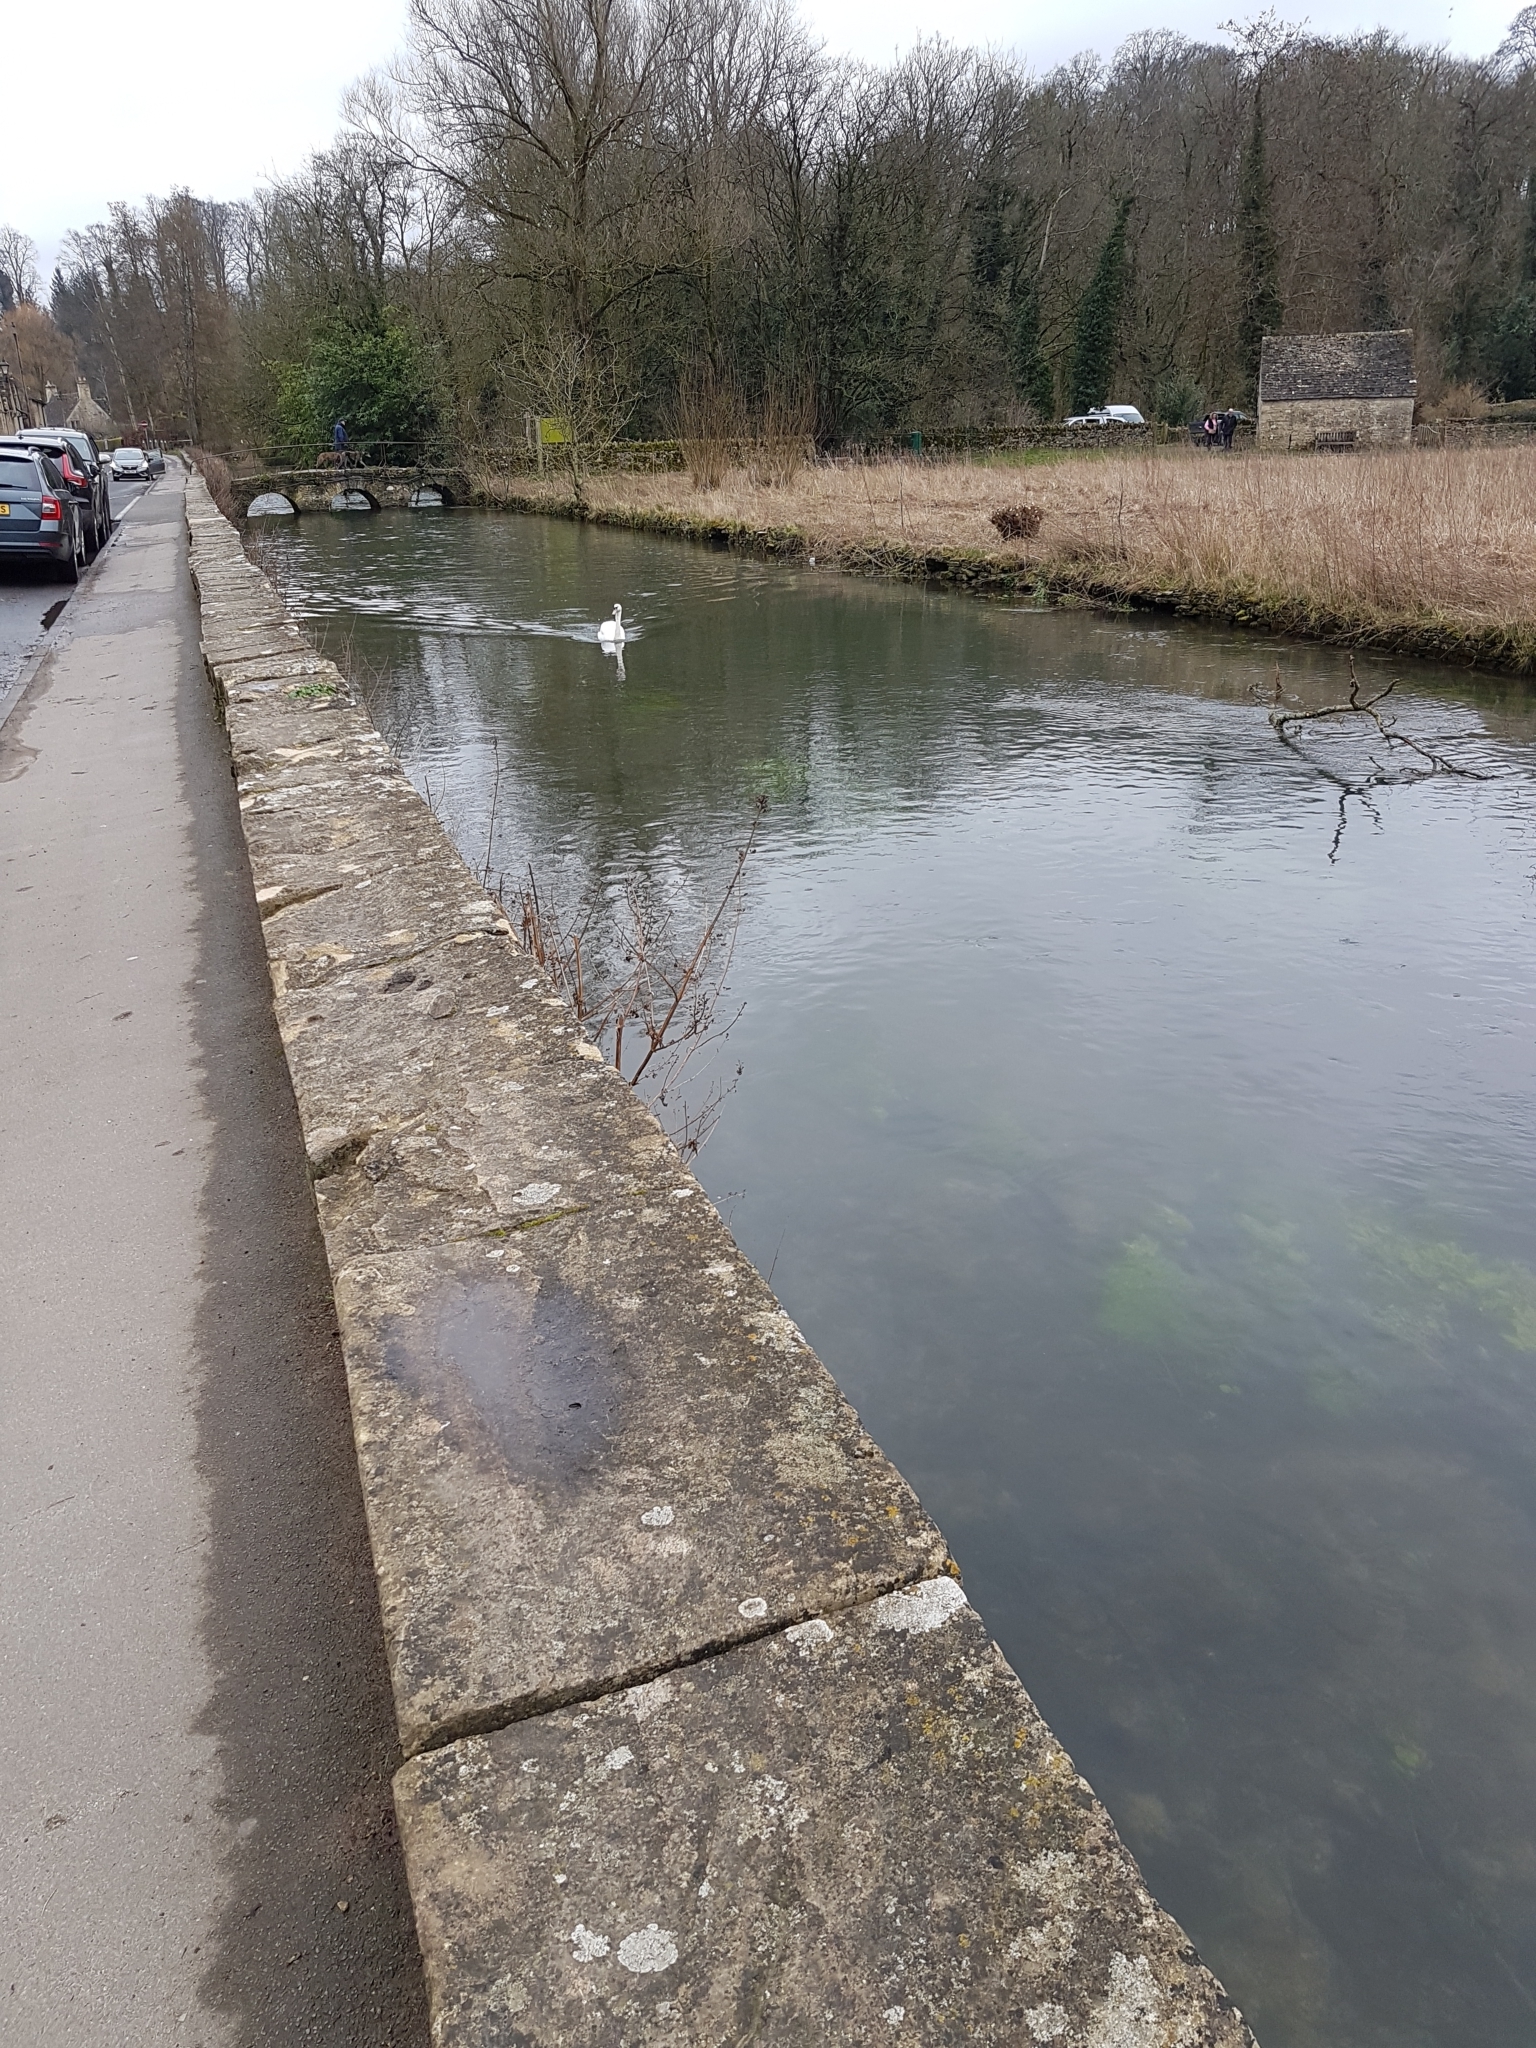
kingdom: Animalia
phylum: Chordata
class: Aves
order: Anseriformes
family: Anatidae
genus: Cygnus
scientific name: Cygnus olor
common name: Mute swan
